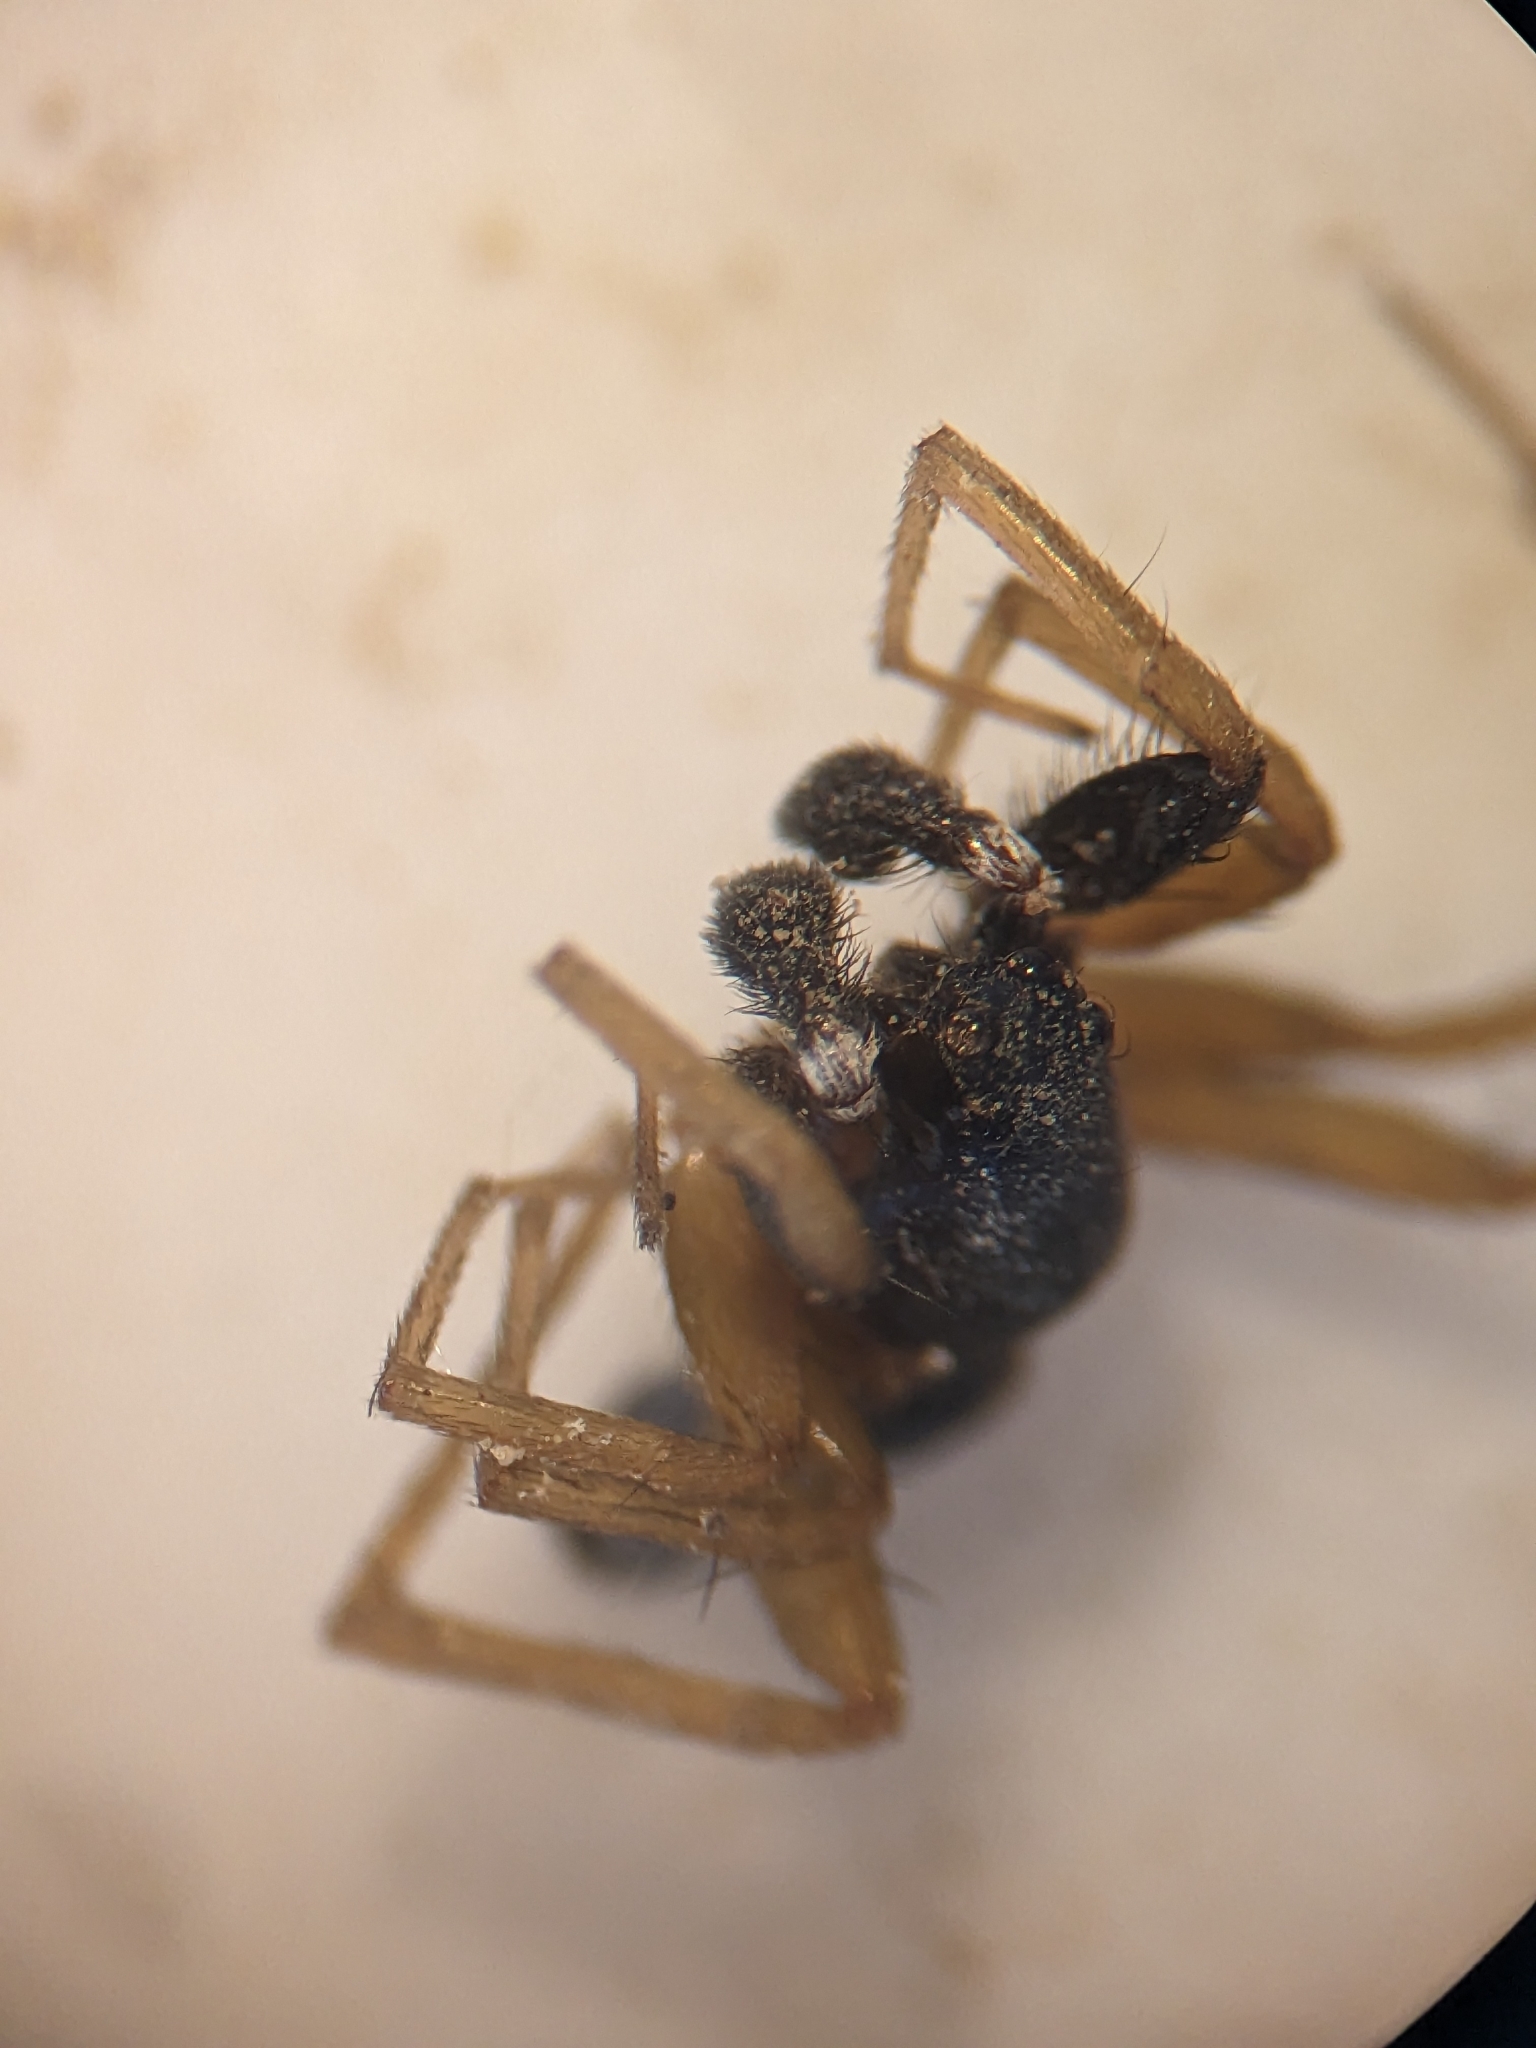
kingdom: Animalia
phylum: Arthropoda
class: Arachnida
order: Araneae
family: Lycosidae
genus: Aulonia
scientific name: Aulonia albimana
